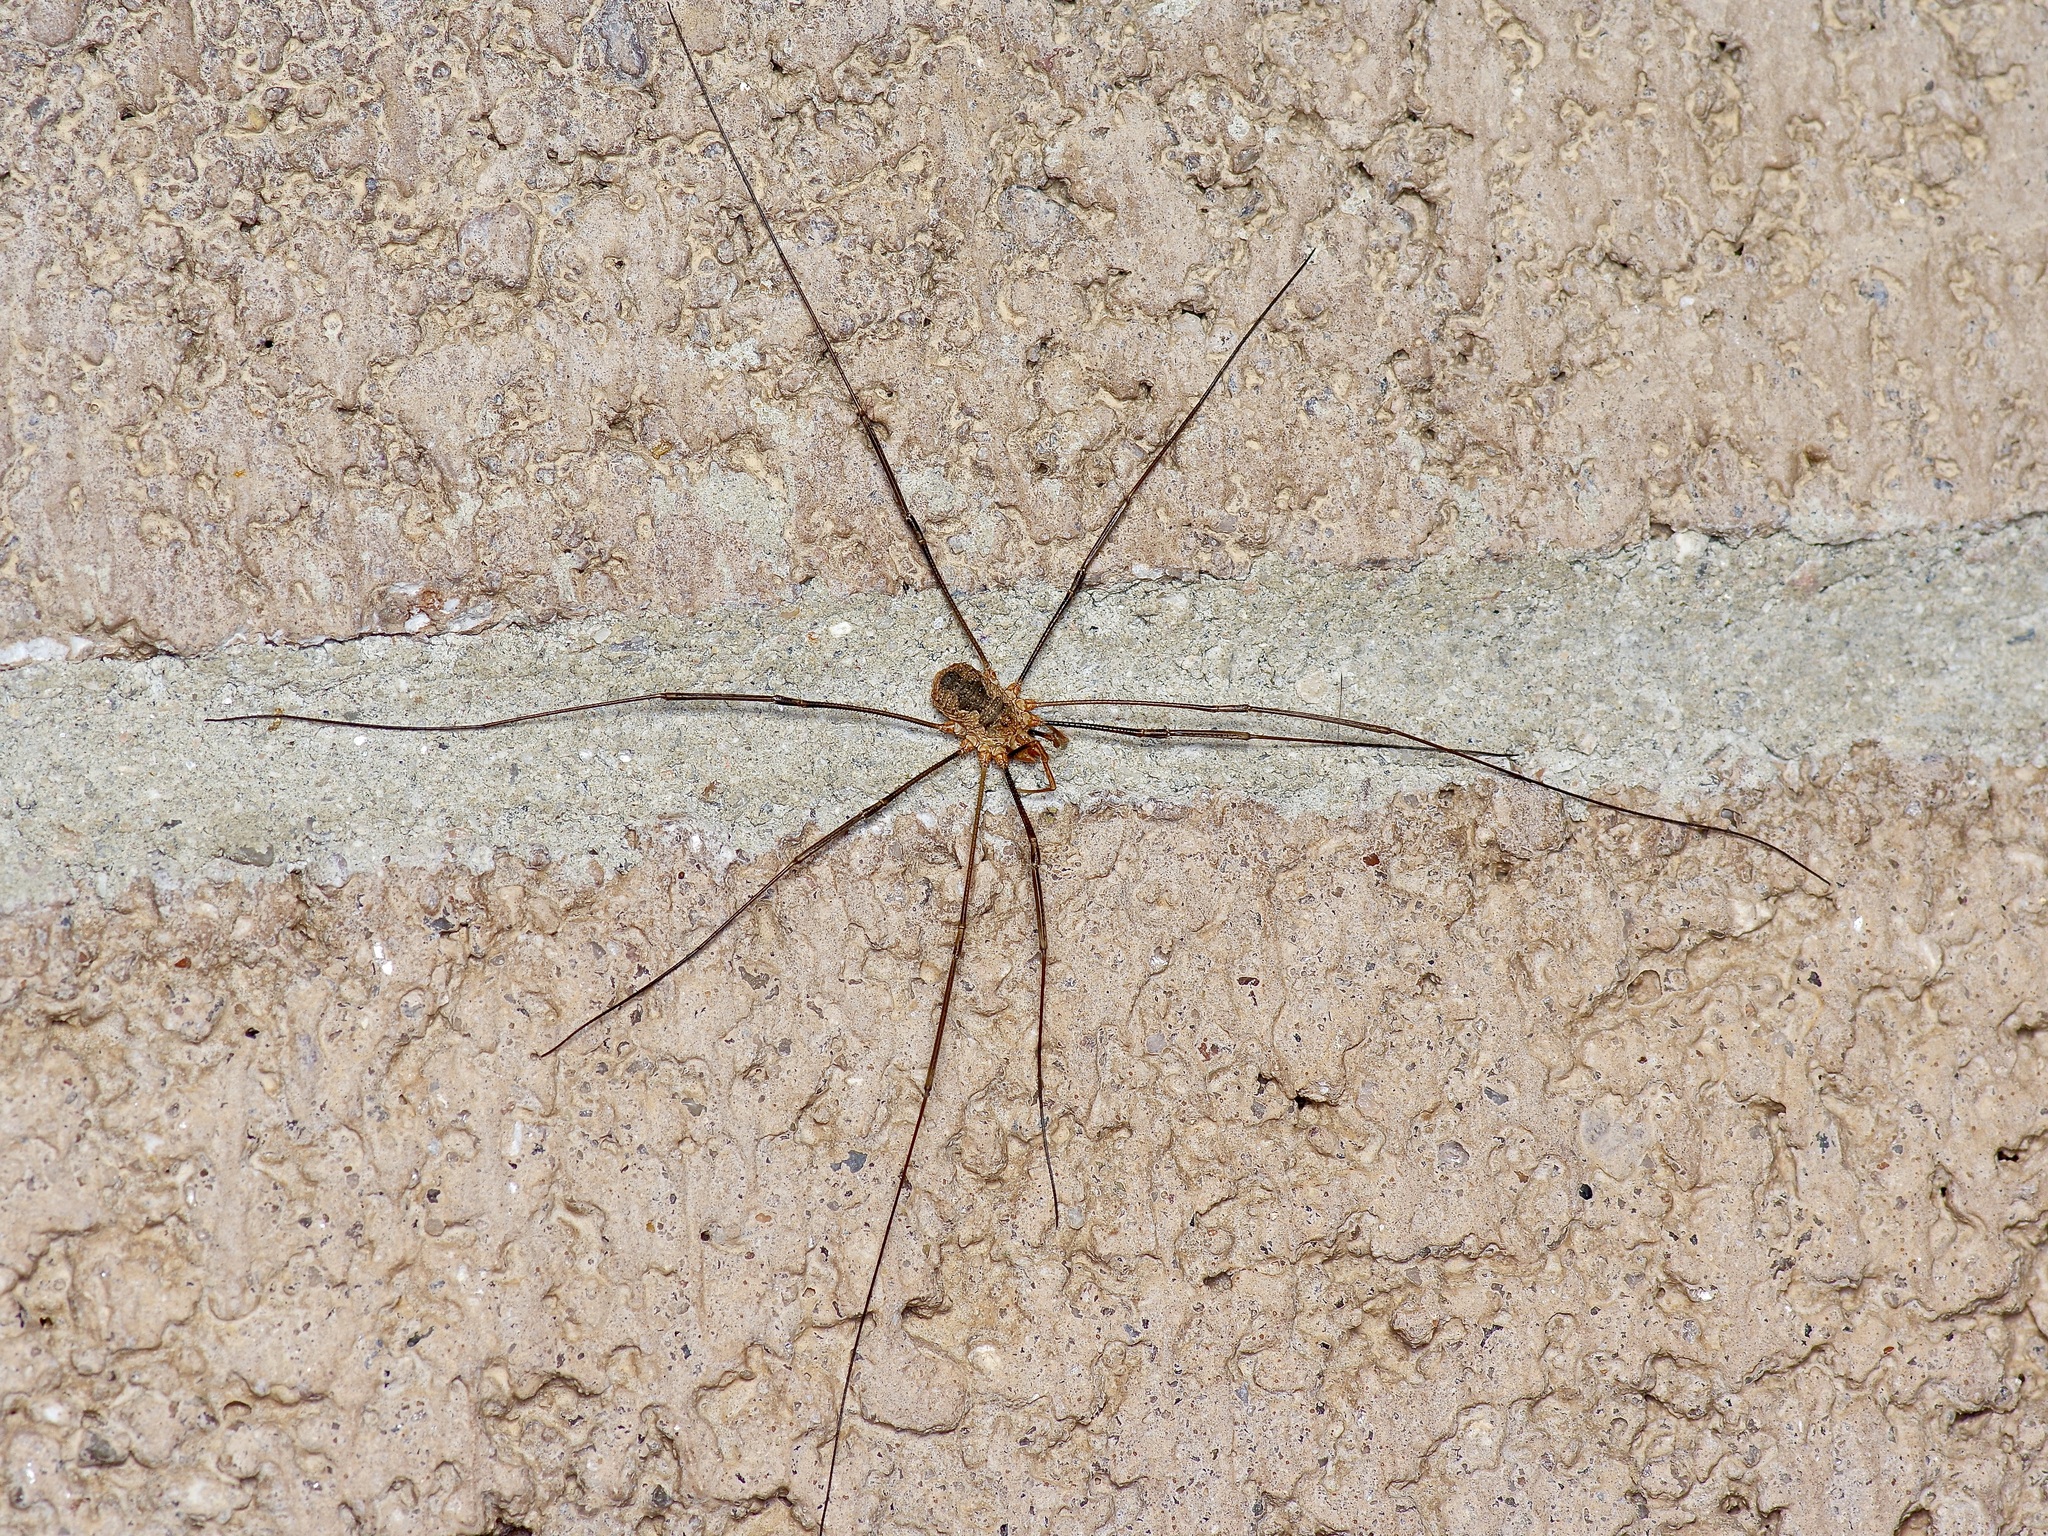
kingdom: Animalia
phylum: Arthropoda
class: Arachnida
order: Opiliones
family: Phalangiidae
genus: Phalangium
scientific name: Phalangium opilio
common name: Daddy longleg
